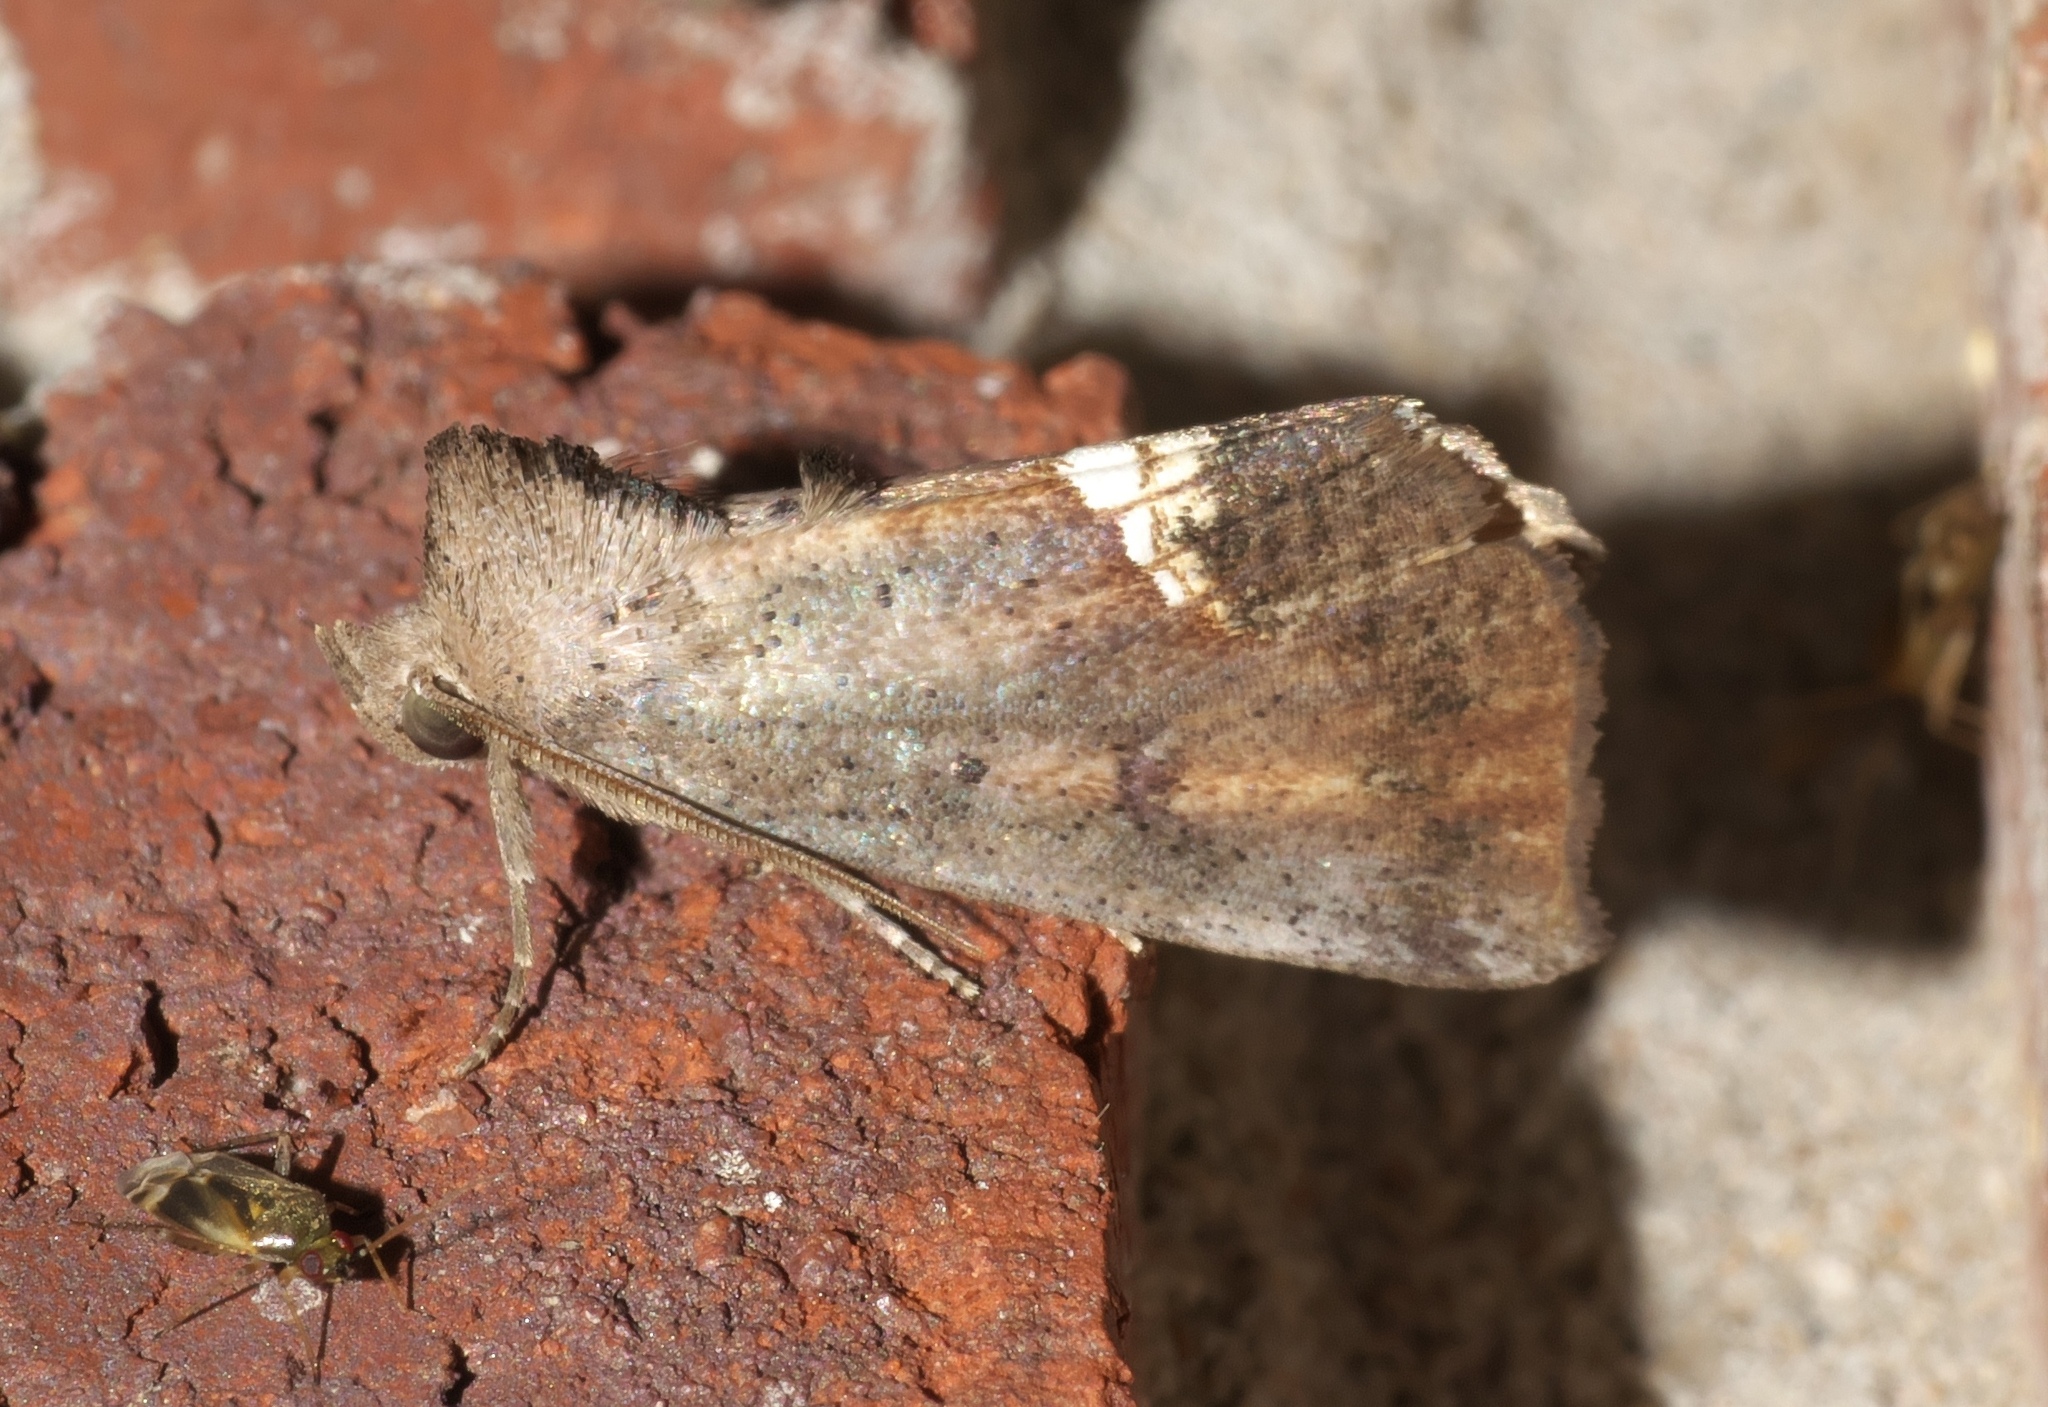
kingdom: Animalia
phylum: Arthropoda
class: Insecta
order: Lepidoptera
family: Erebidae
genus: Hypsoropha
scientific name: Hypsoropha hormos
